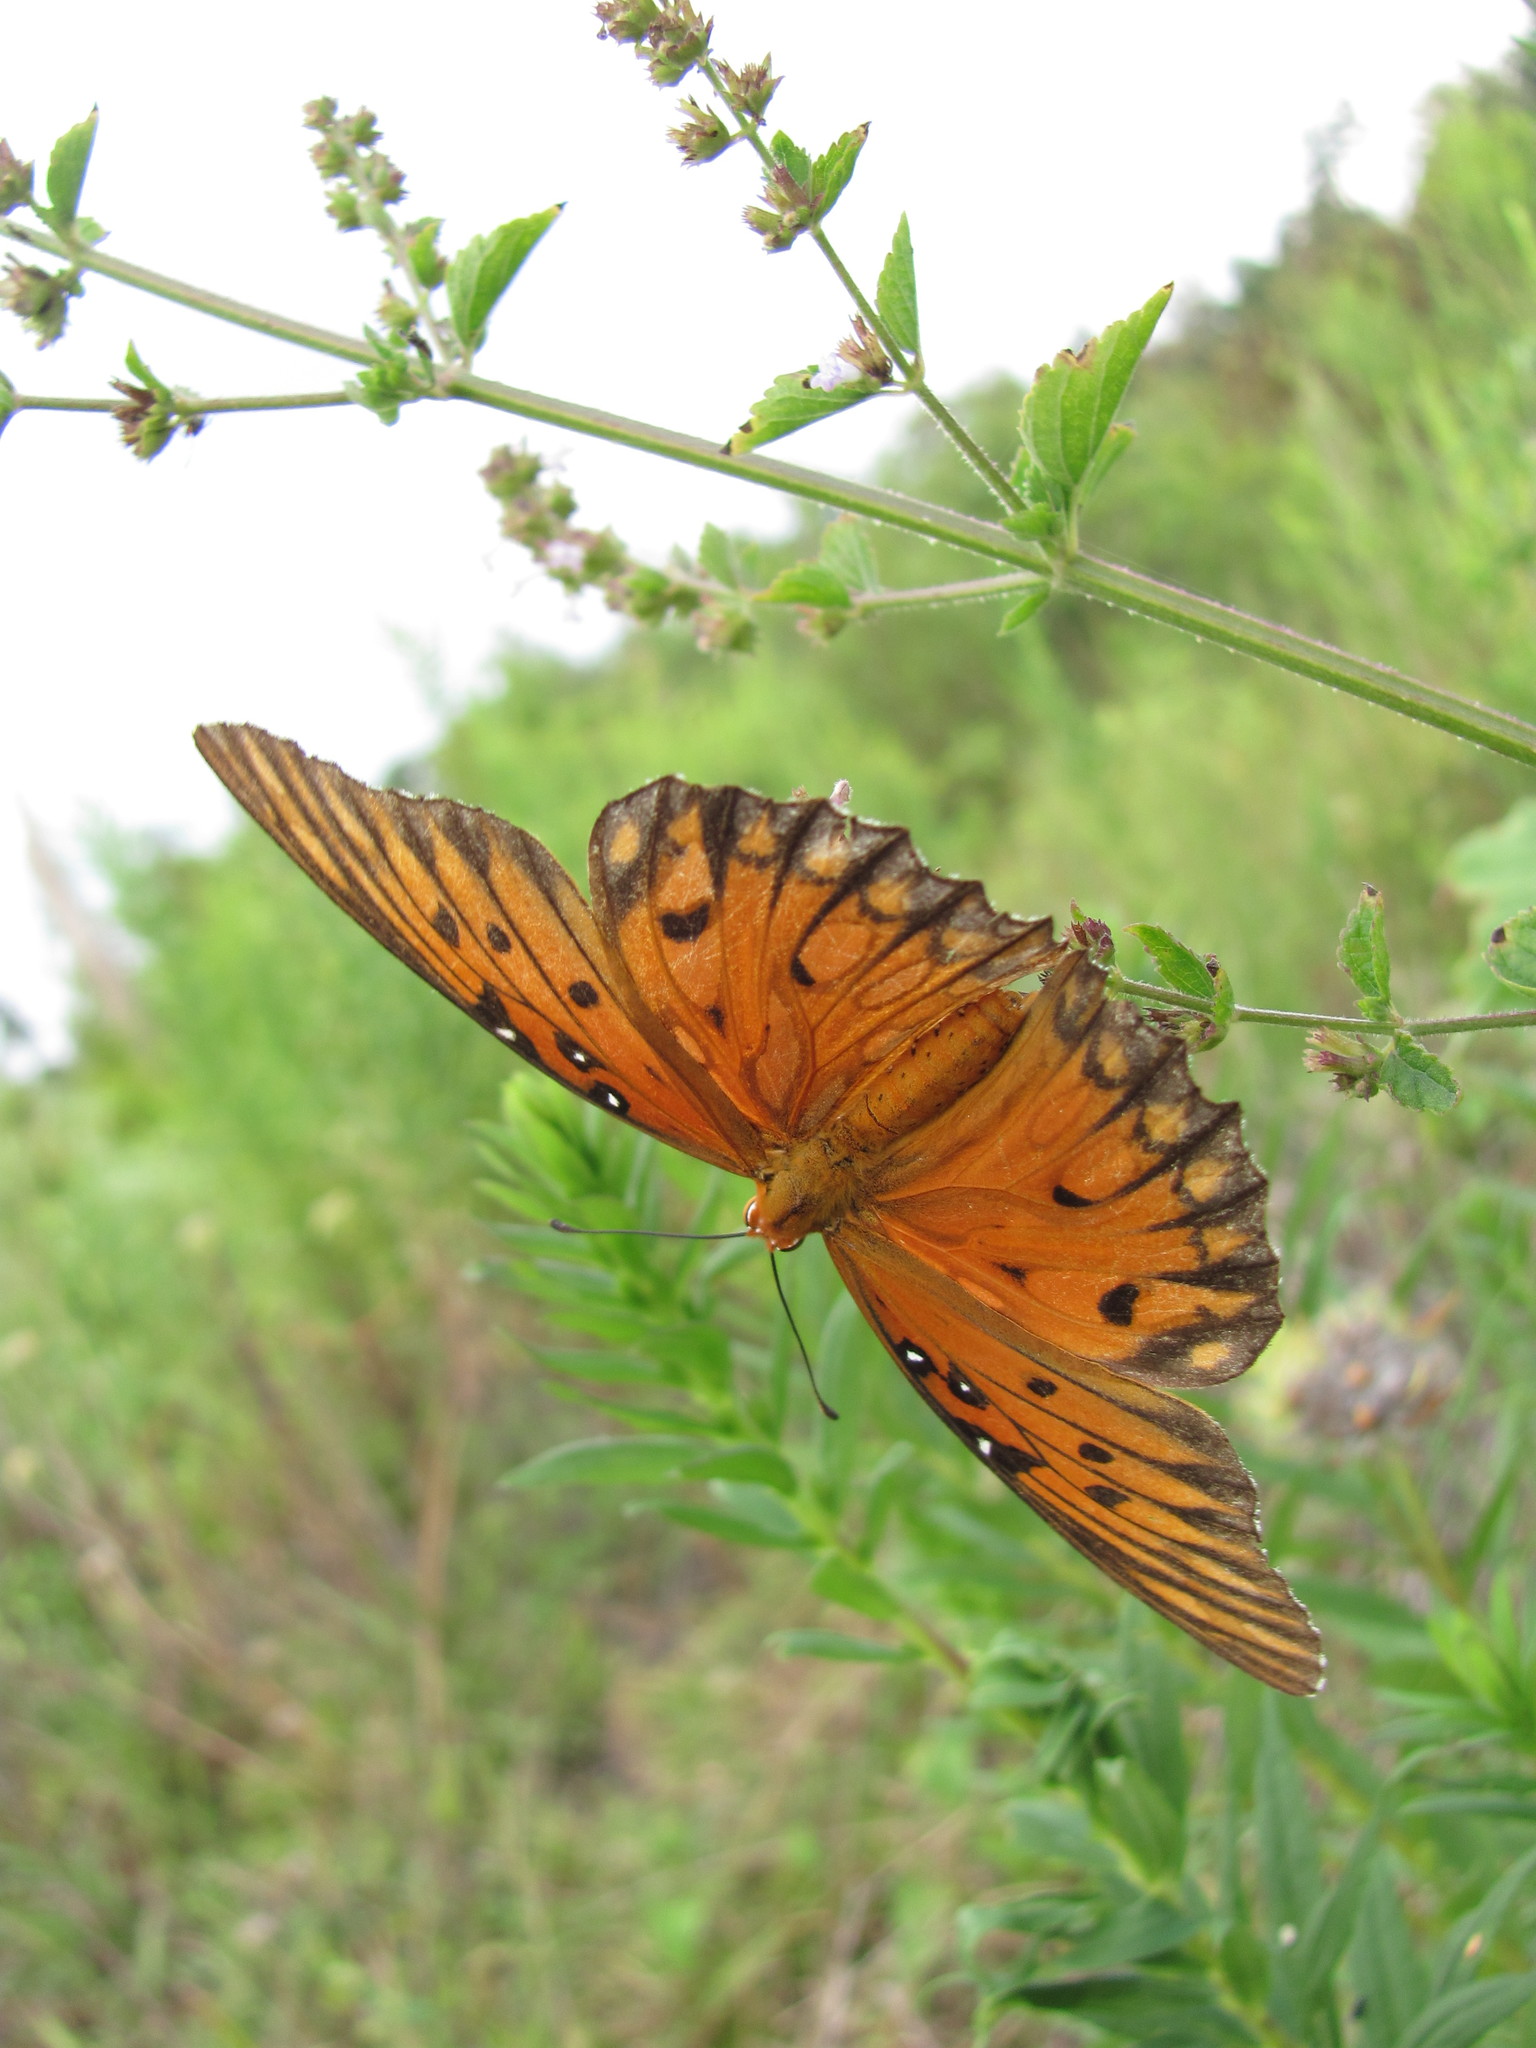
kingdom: Animalia
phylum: Arthropoda
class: Insecta
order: Lepidoptera
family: Nymphalidae
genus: Dione
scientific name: Dione vanillae
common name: Gulf fritillary
